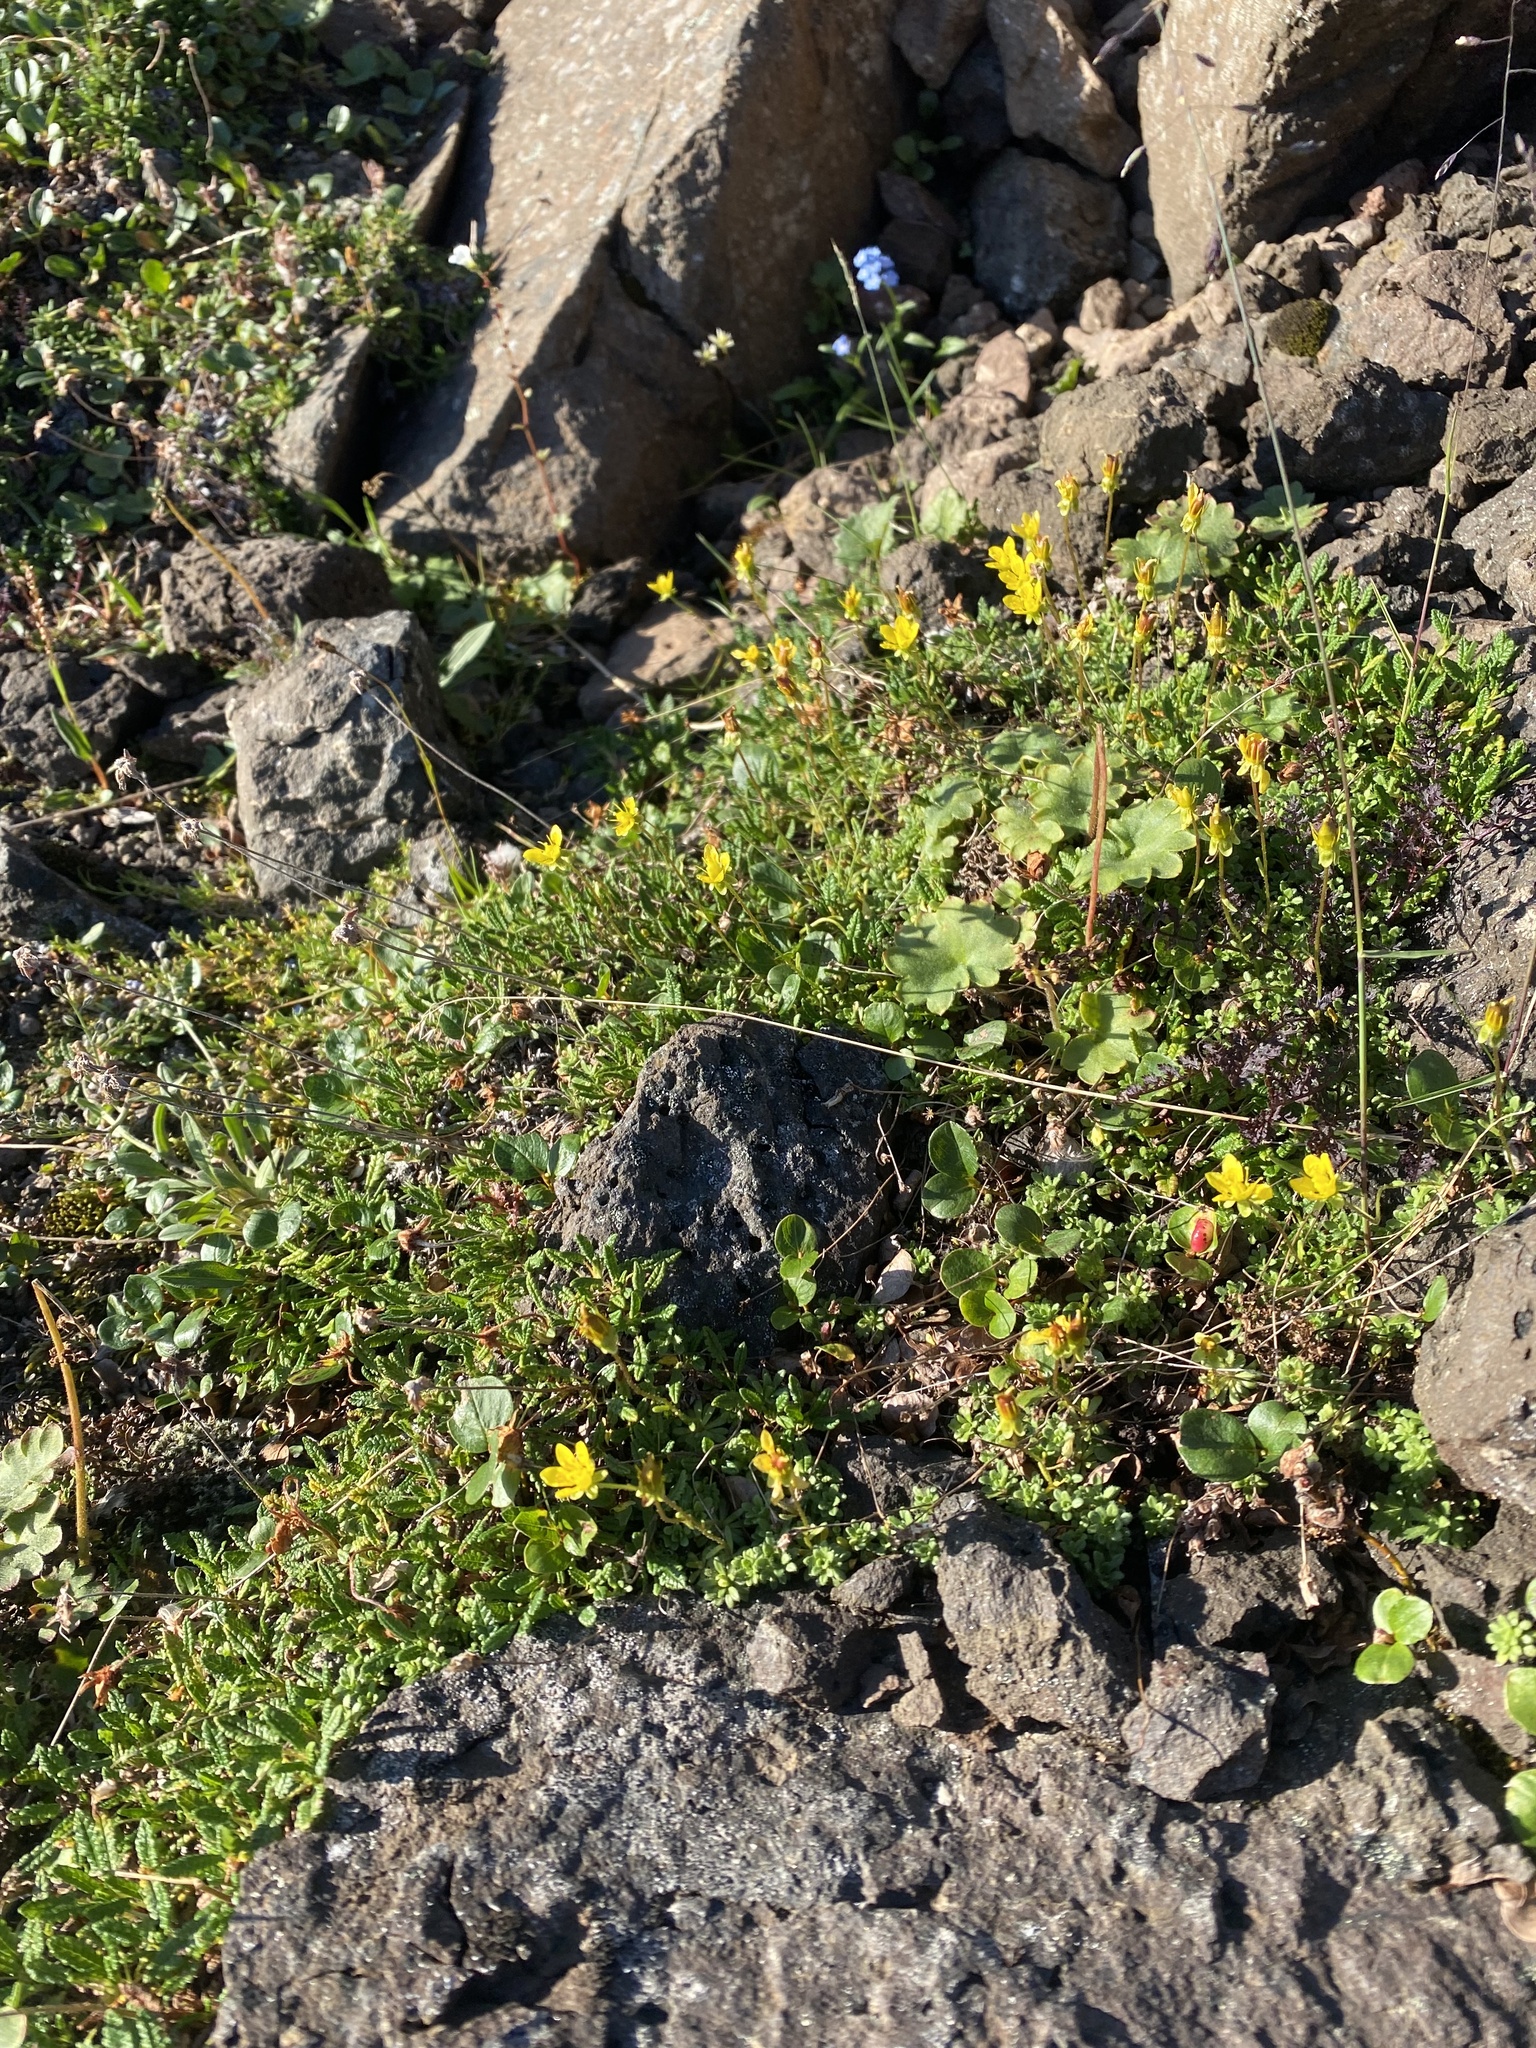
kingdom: Plantae
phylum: Tracheophyta
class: Magnoliopsida
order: Saxifragales
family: Saxifragaceae
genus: Saxifraga
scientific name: Saxifraga serpyllifolia
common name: Thyme-leaved saxifrage
